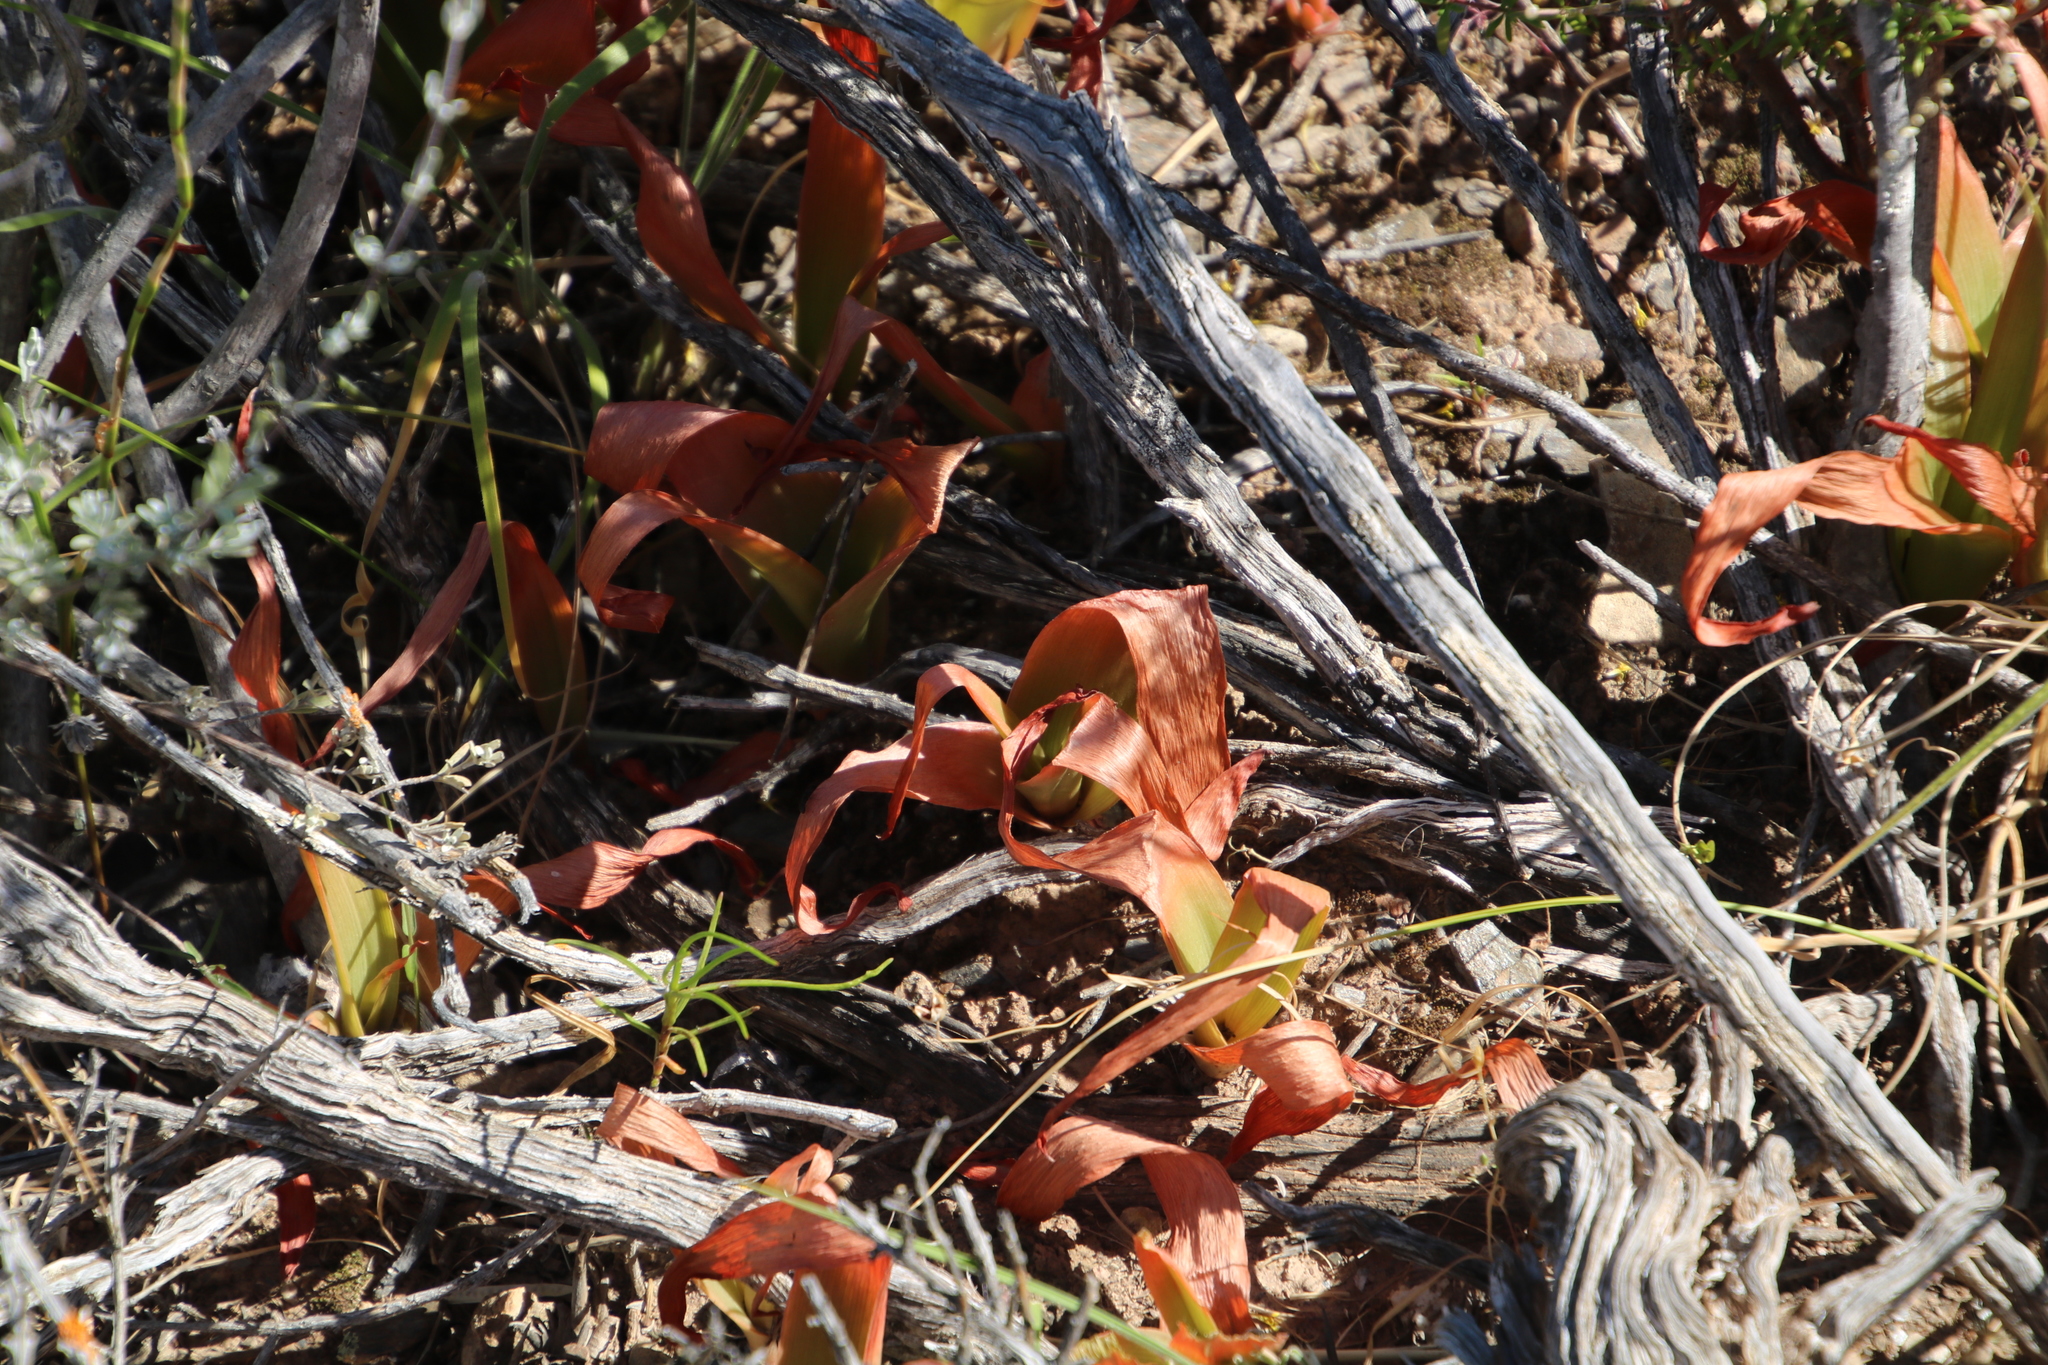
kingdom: Plantae
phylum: Tracheophyta
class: Liliopsida
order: Asparagales
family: Asparagaceae
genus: Drimia
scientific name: Drimia capensis
